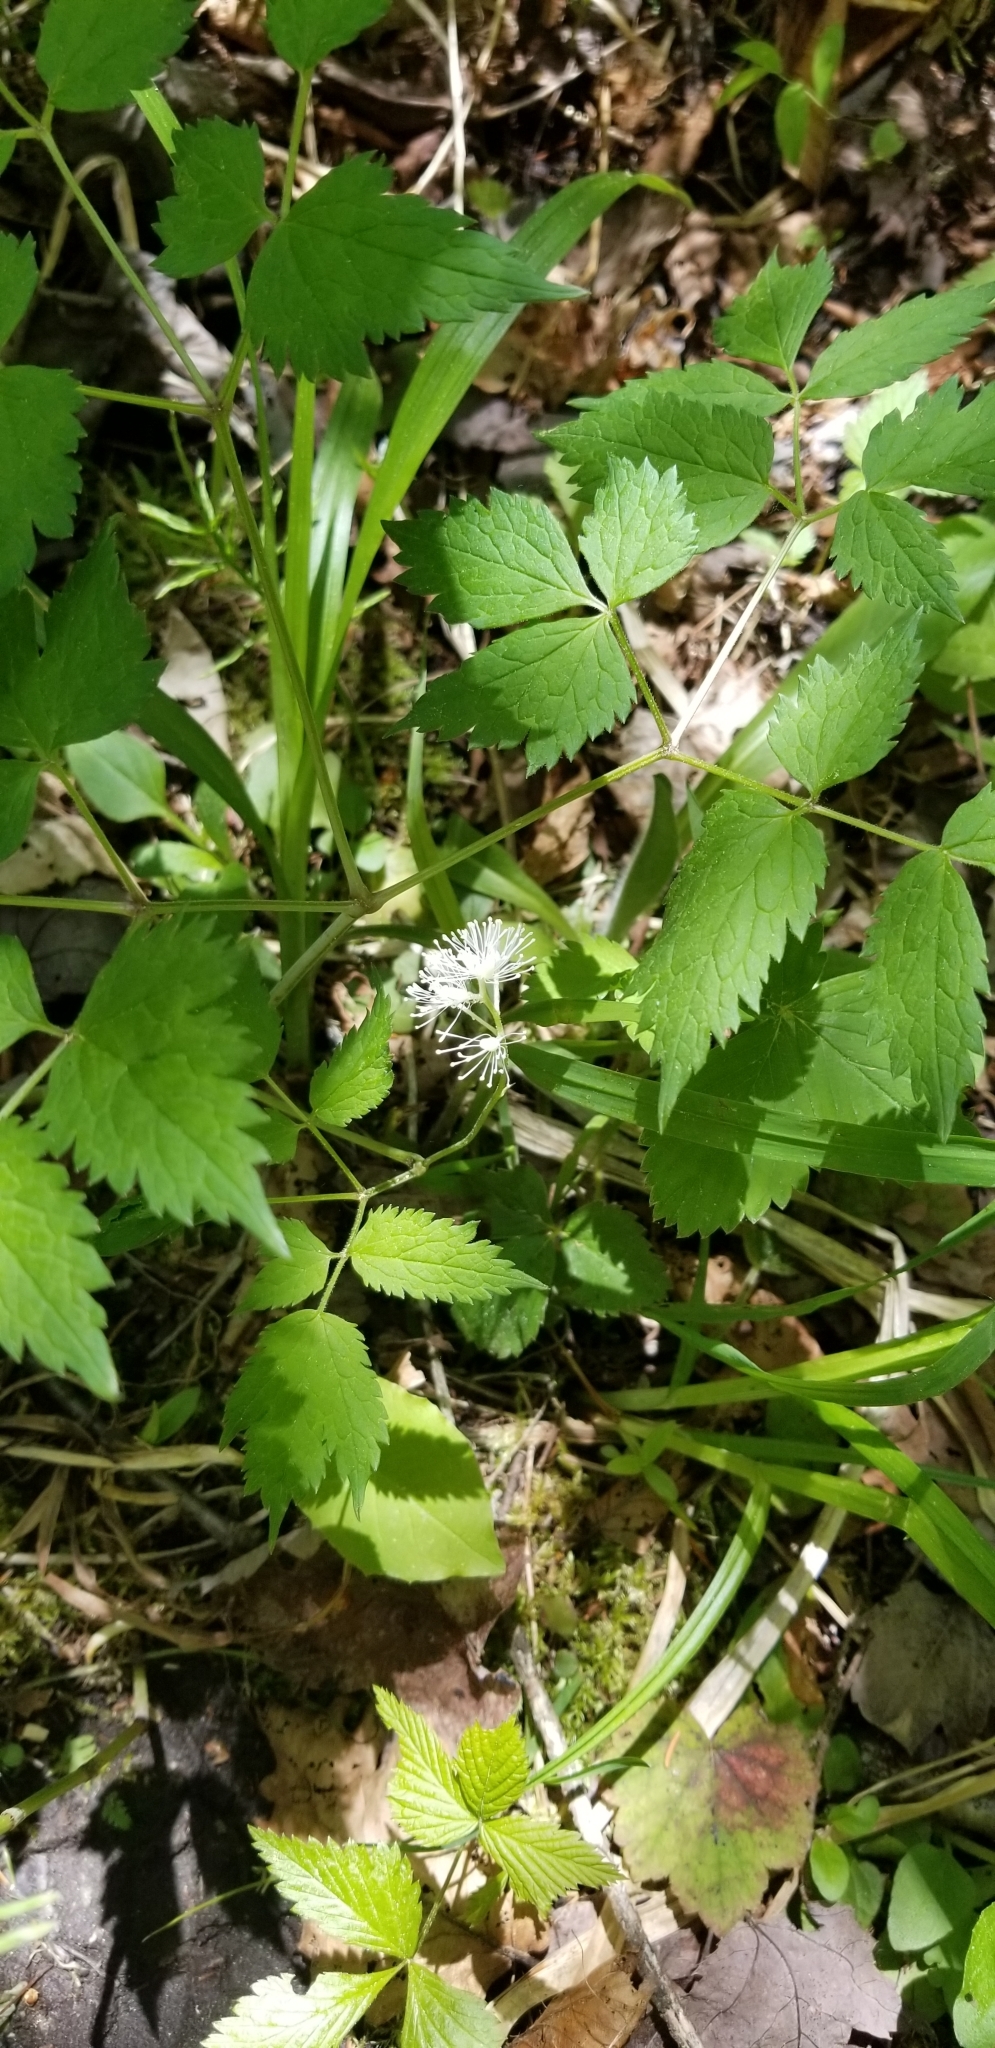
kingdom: Plantae
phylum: Tracheophyta
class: Magnoliopsida
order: Ranunculales
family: Ranunculaceae
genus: Actaea
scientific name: Actaea pachypoda
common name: Doll's-eyes
